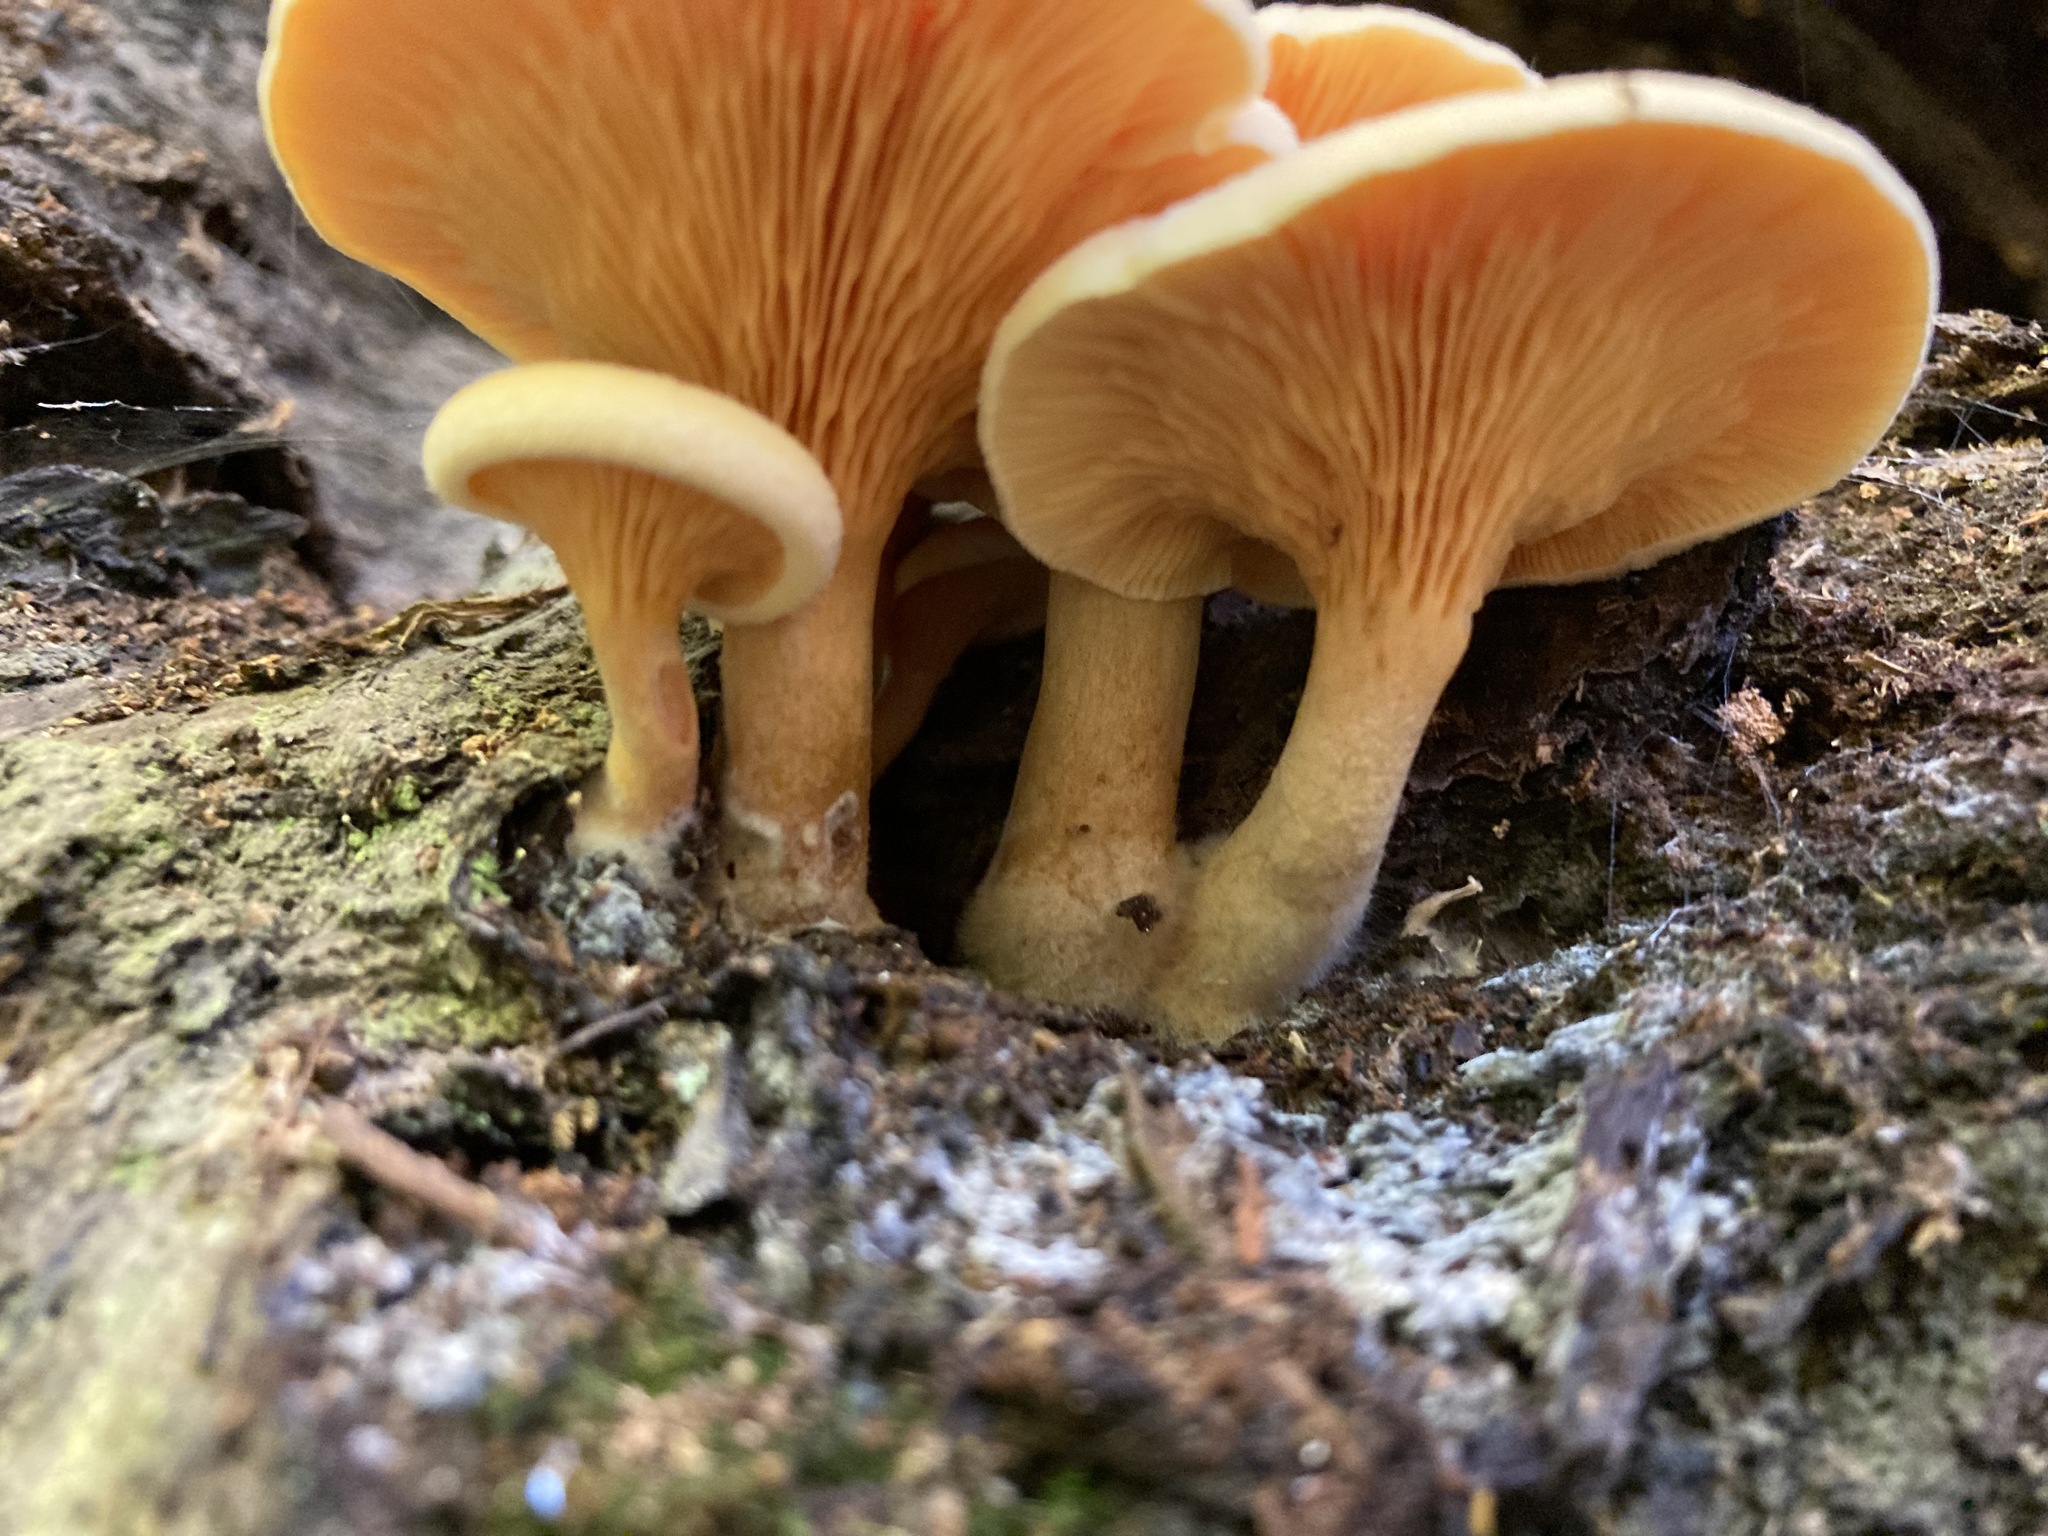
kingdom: Fungi
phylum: Basidiomycota
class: Agaricomycetes
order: Boletales
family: Hygrophoropsidaceae
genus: Hygrophoropsis
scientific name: Hygrophoropsis aurantiaca
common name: False chanterelle
